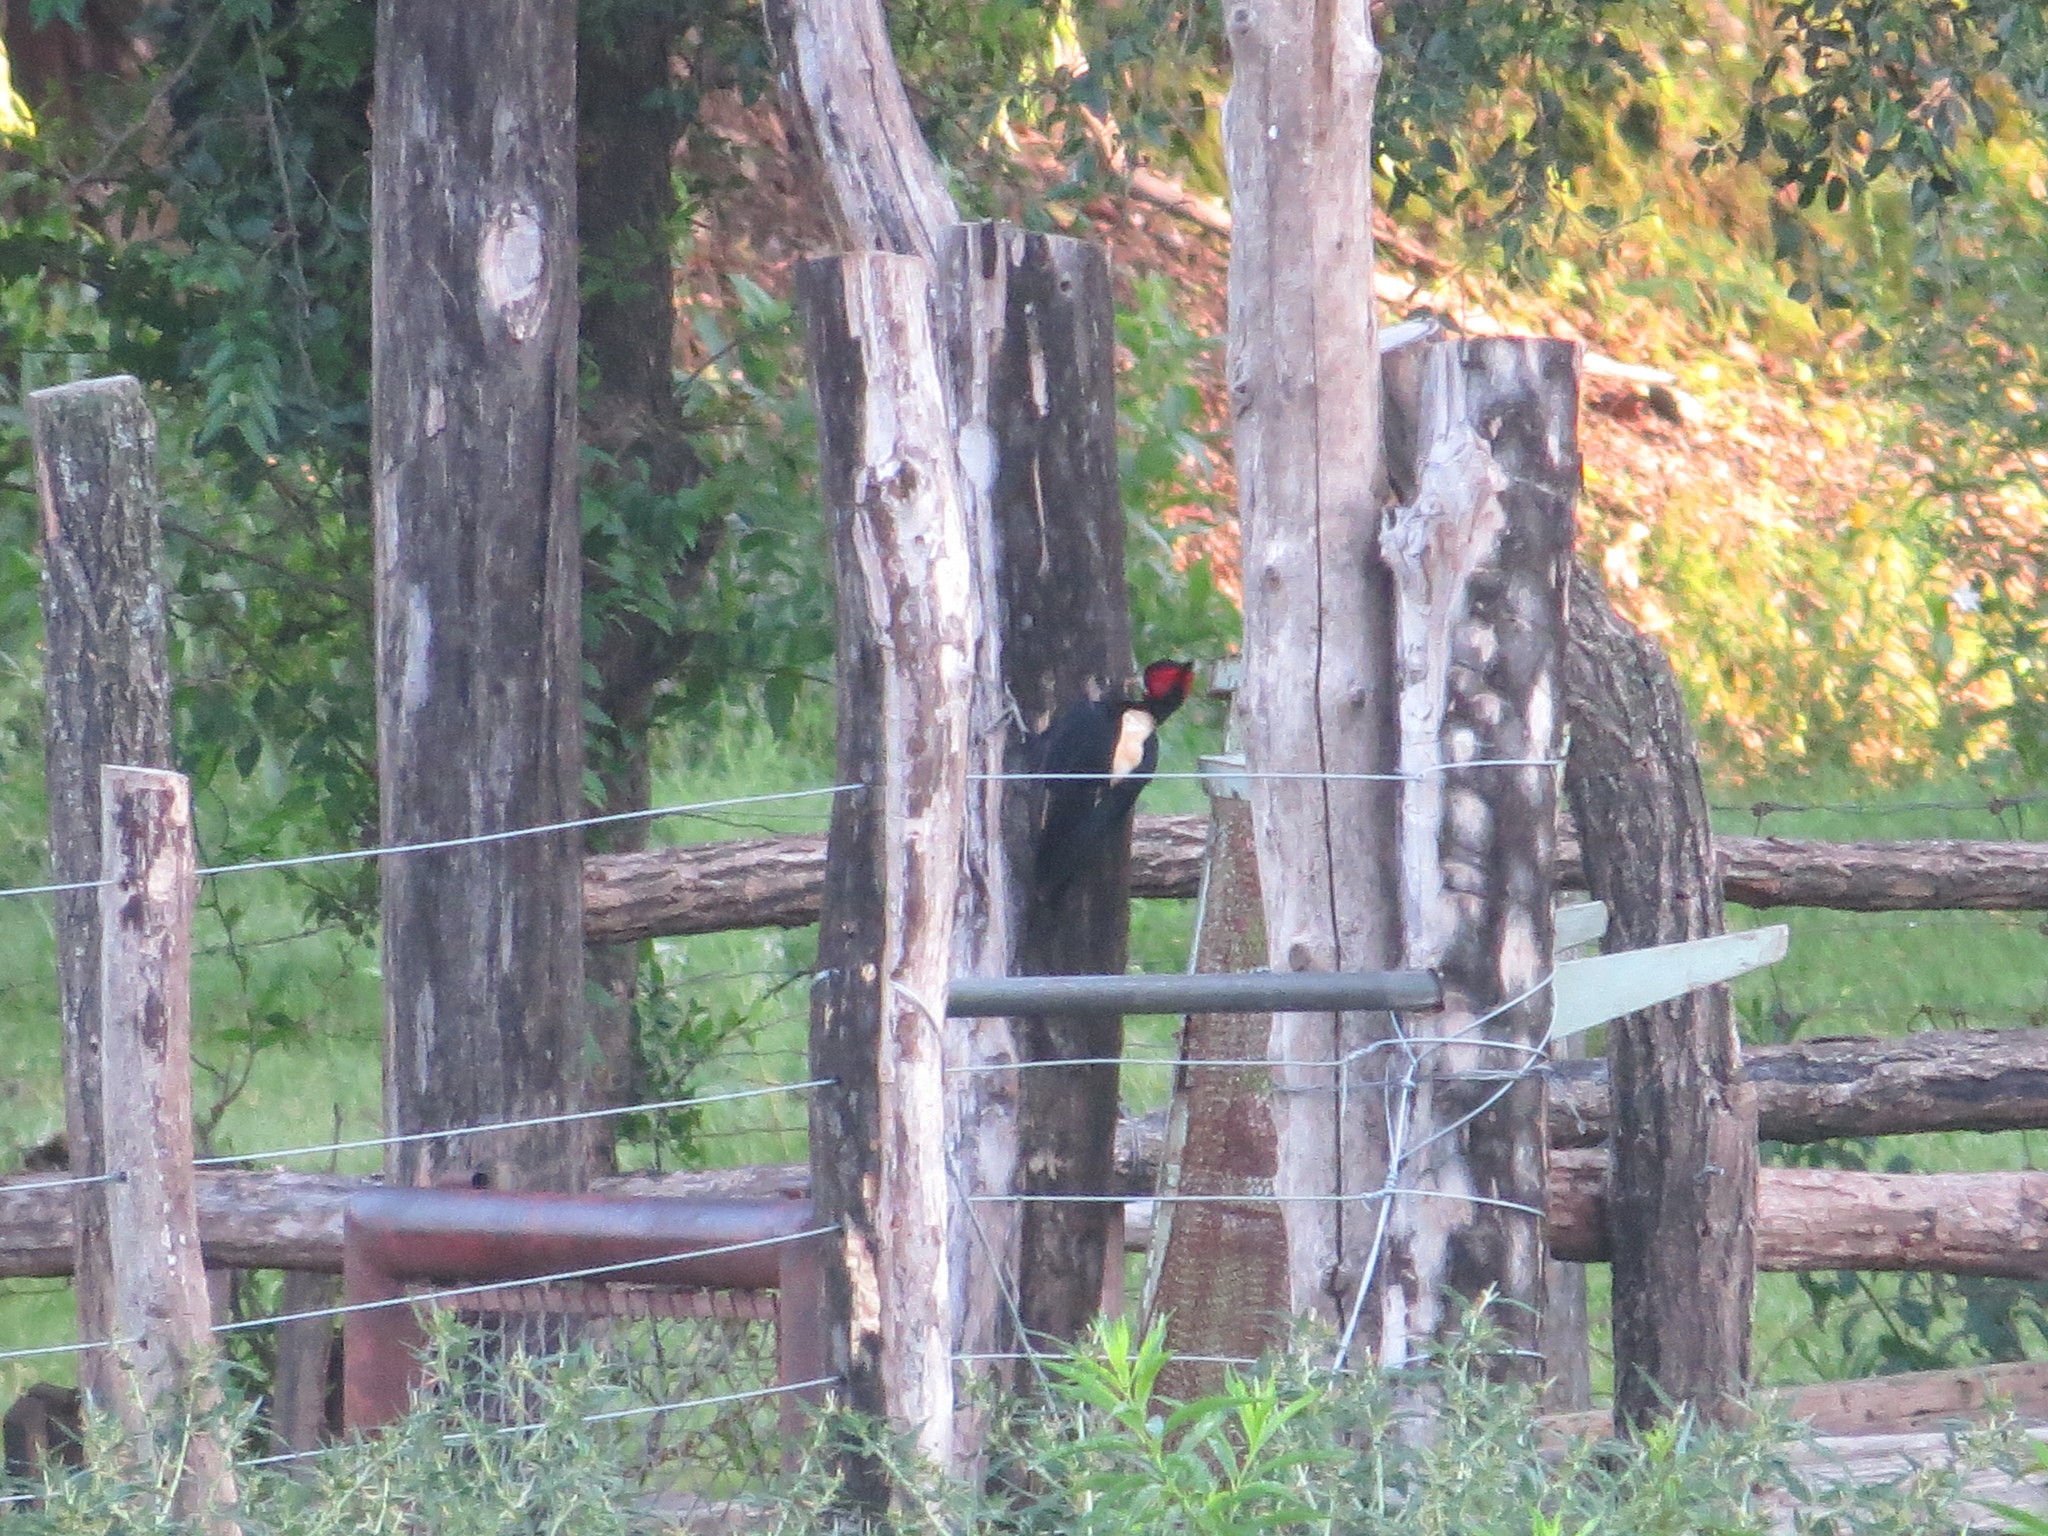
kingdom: Animalia
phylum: Chordata
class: Aves
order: Piciformes
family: Picidae
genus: Campephilus
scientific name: Campephilus leucopogon
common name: Cream-backed woodpecker
